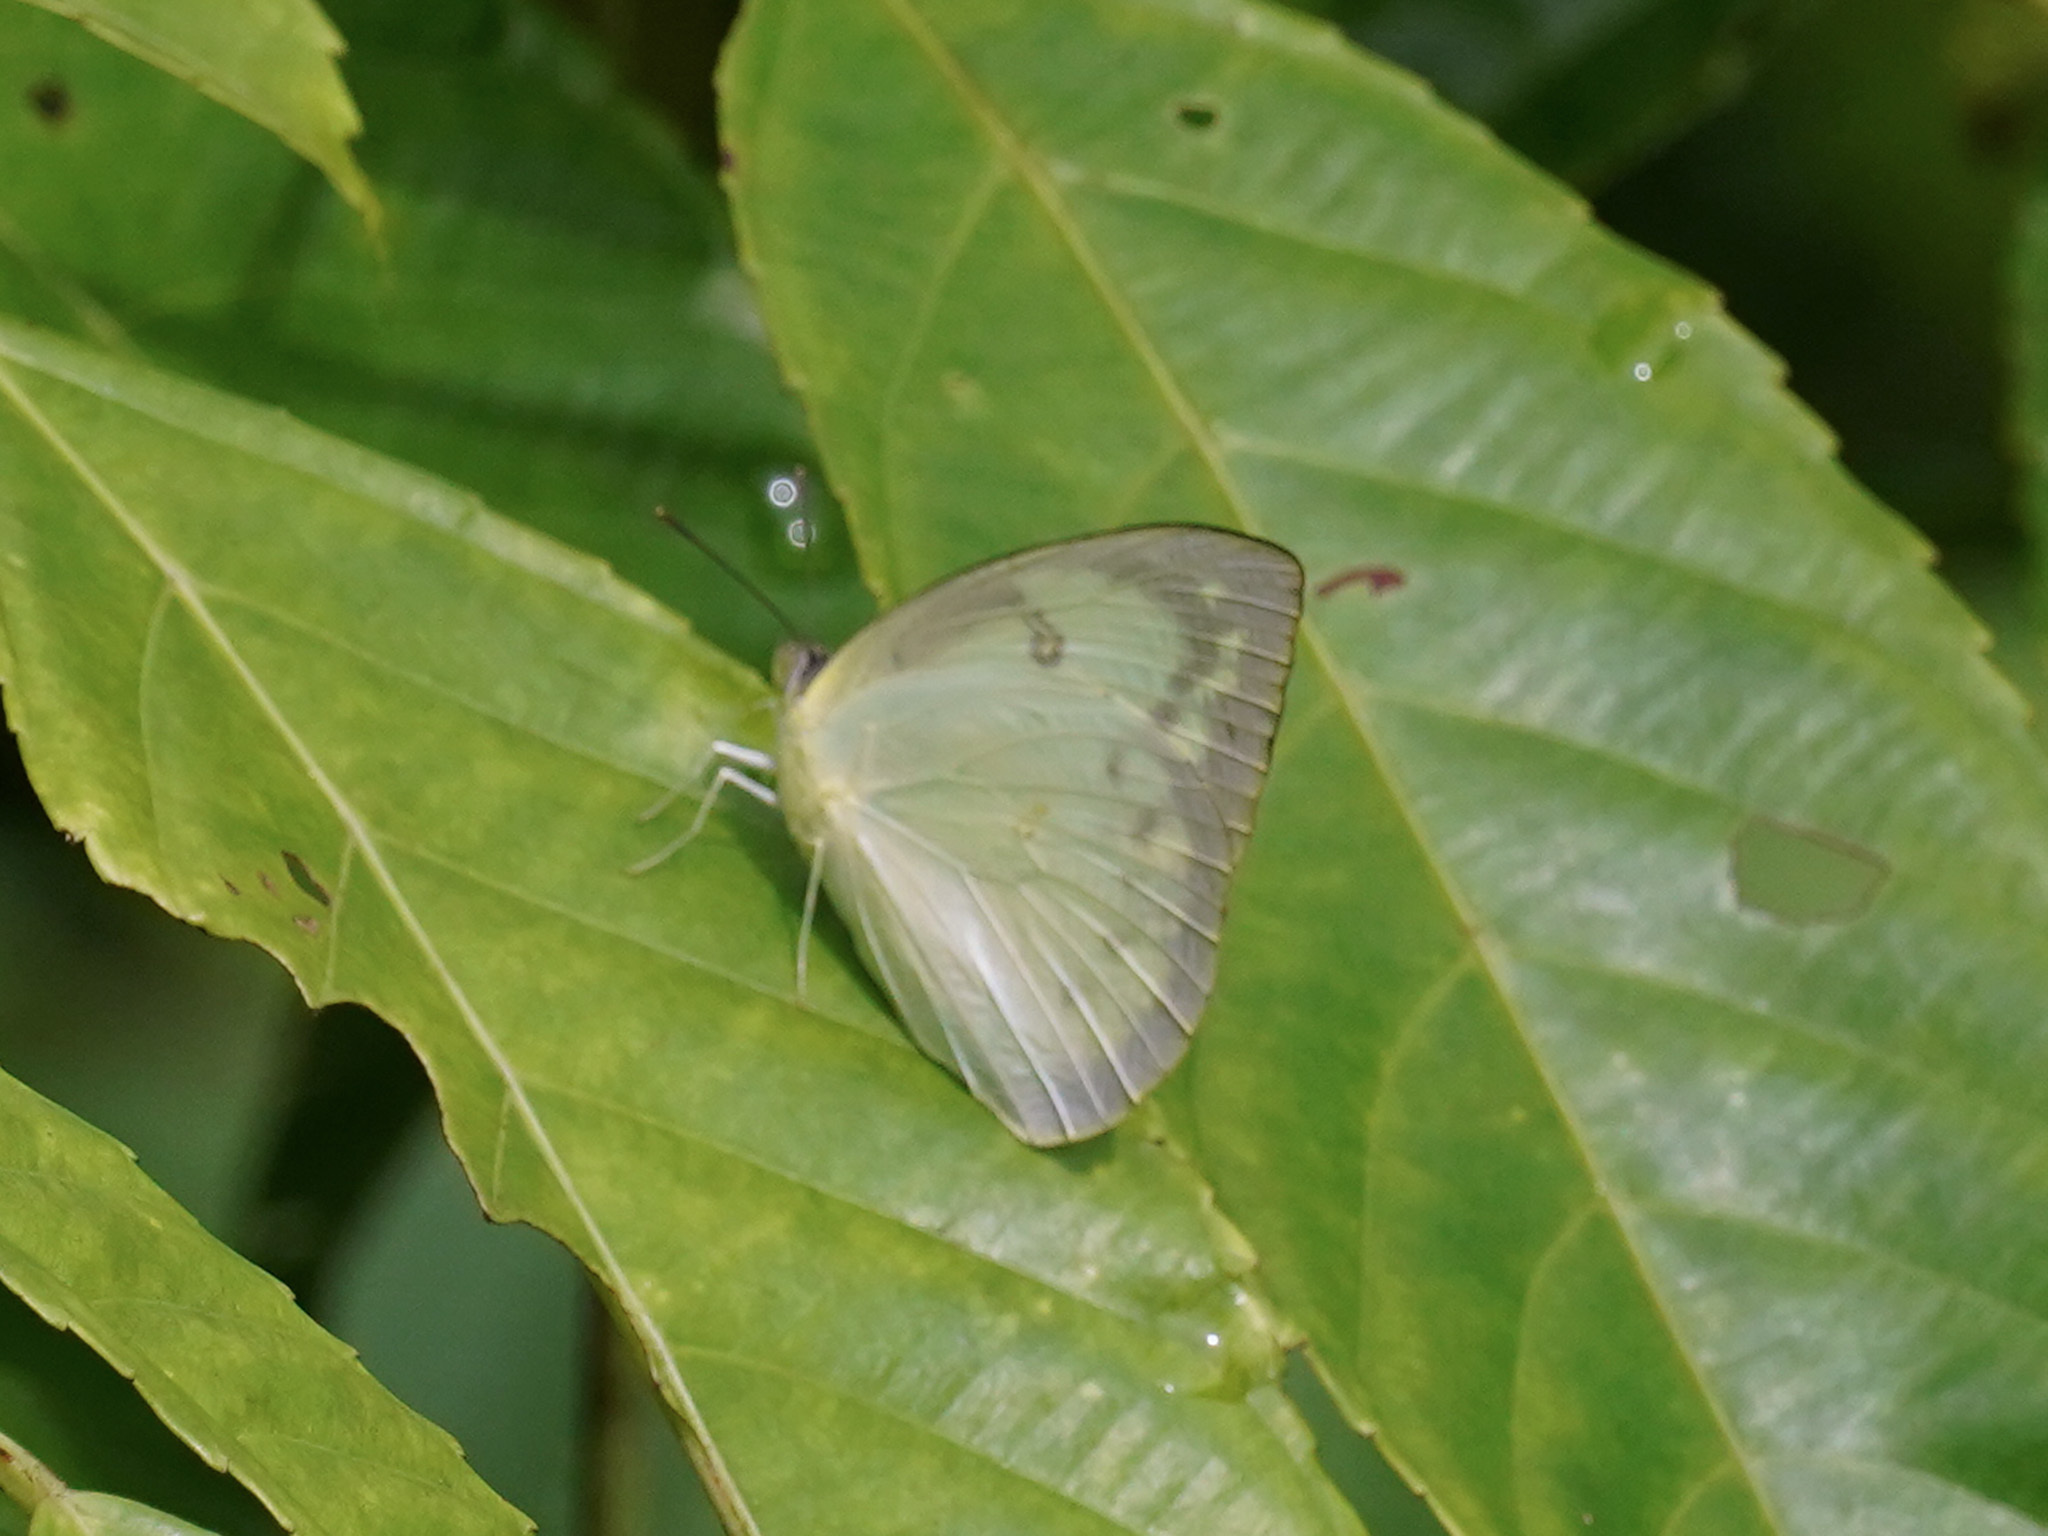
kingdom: Animalia
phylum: Arthropoda
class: Insecta
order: Lepidoptera
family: Pieridae
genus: Catopsilia
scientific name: Catopsilia pomona
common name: Common emigrant
